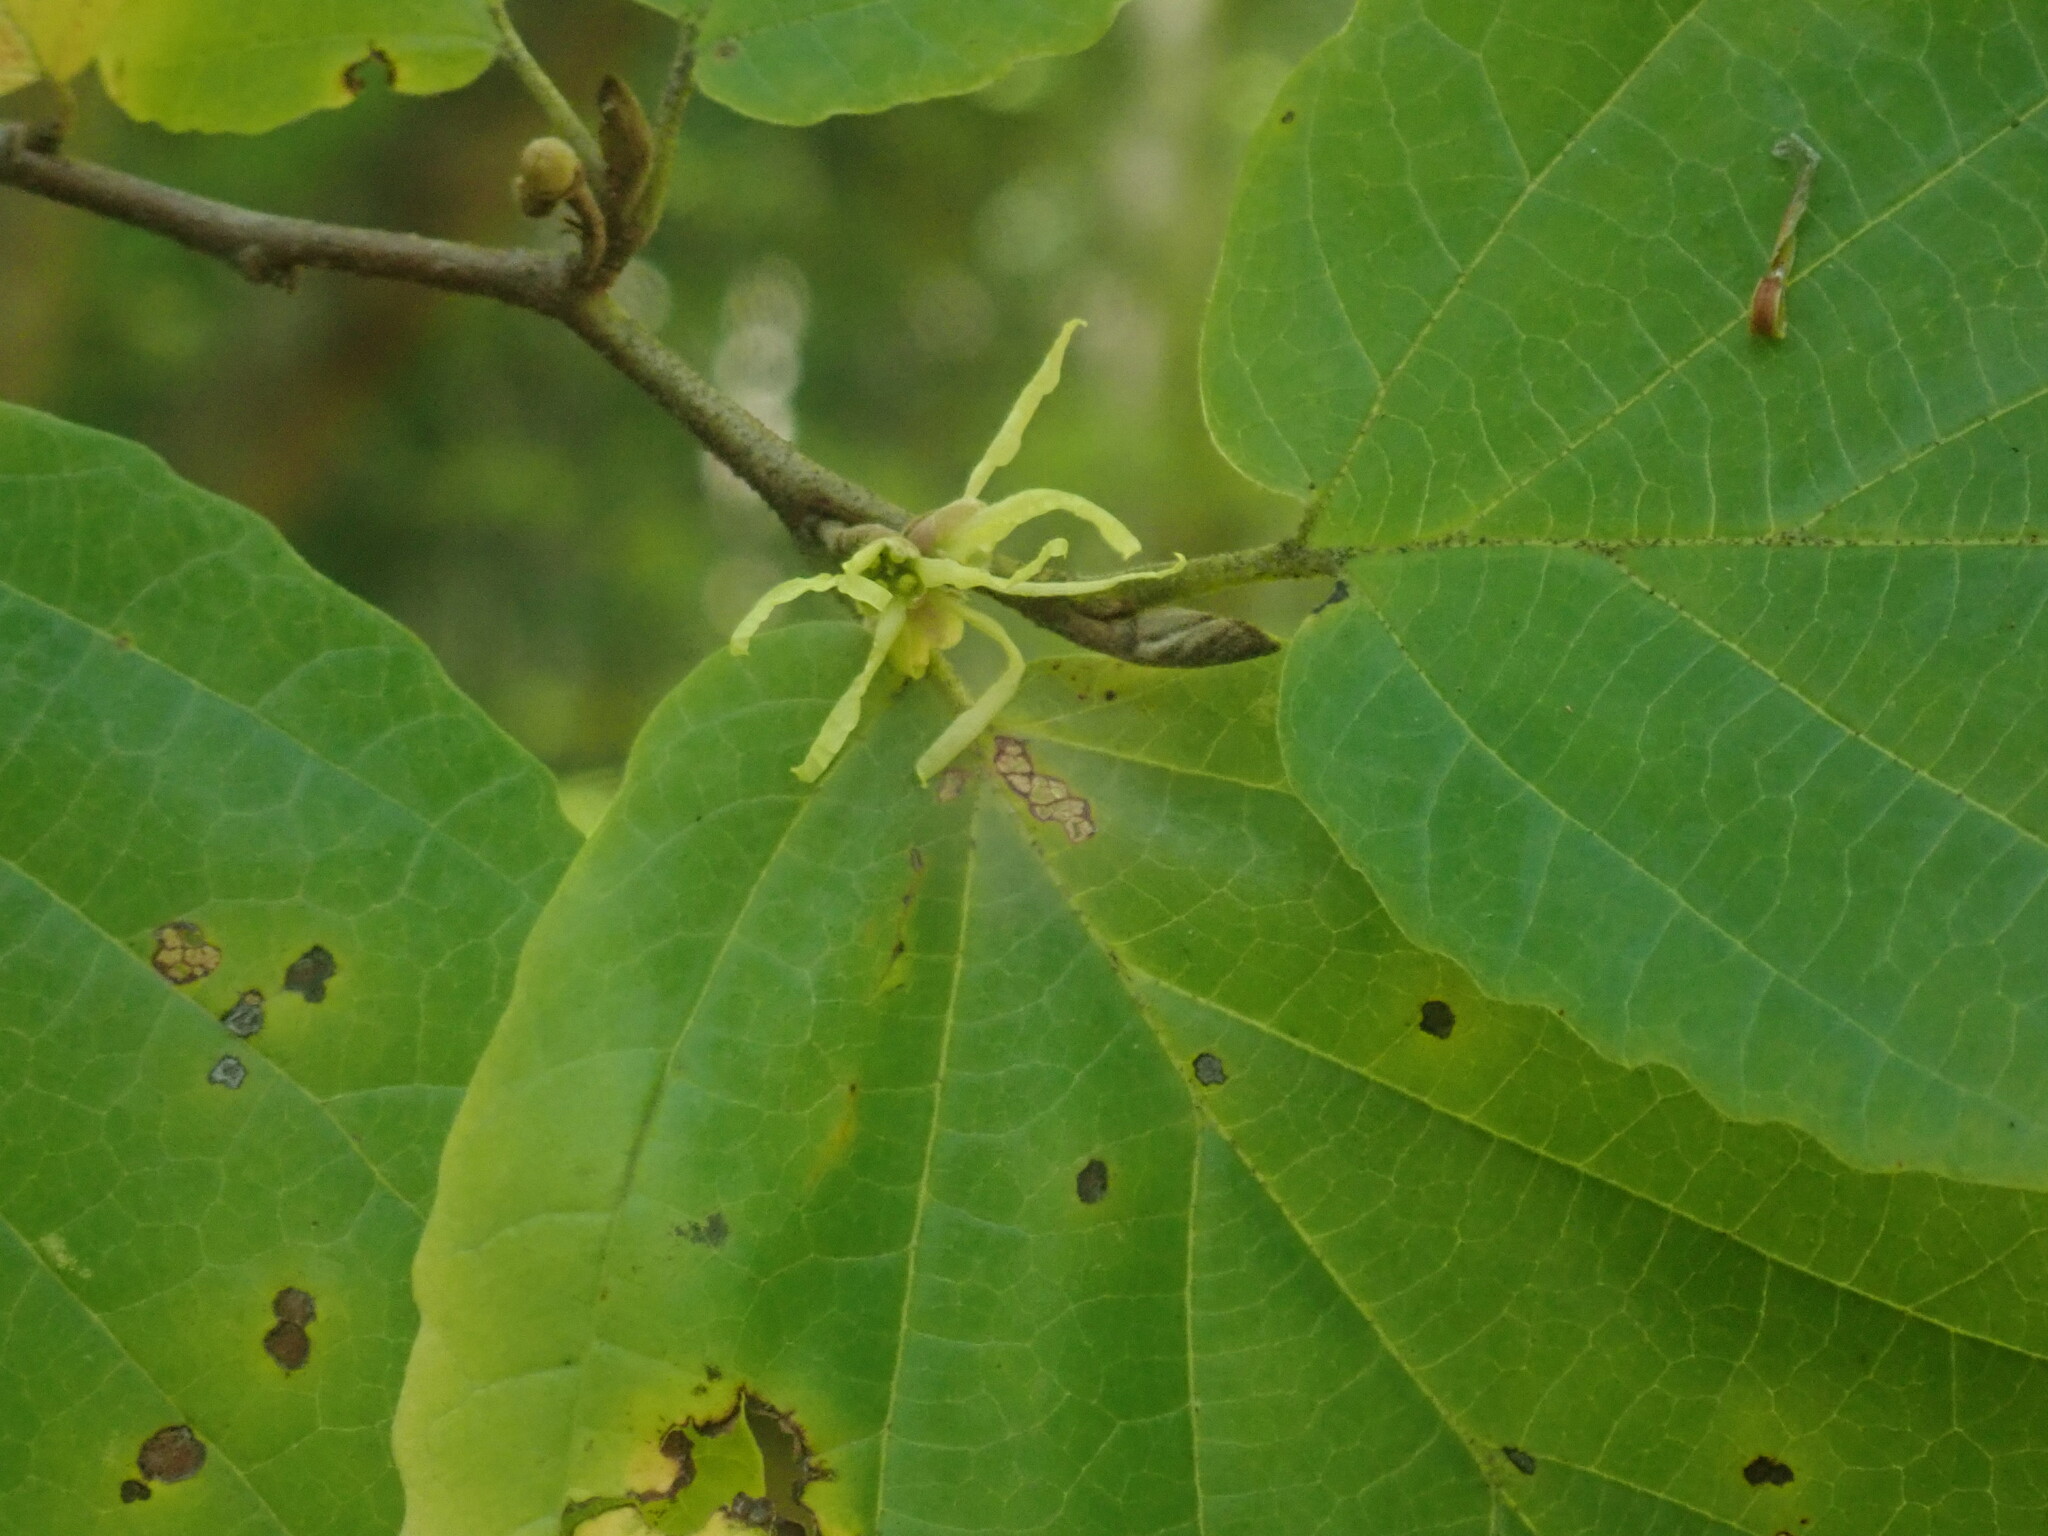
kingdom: Plantae
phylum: Tracheophyta
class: Magnoliopsida
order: Saxifragales
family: Hamamelidaceae
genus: Hamamelis
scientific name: Hamamelis virginiana
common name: Witch-hazel
